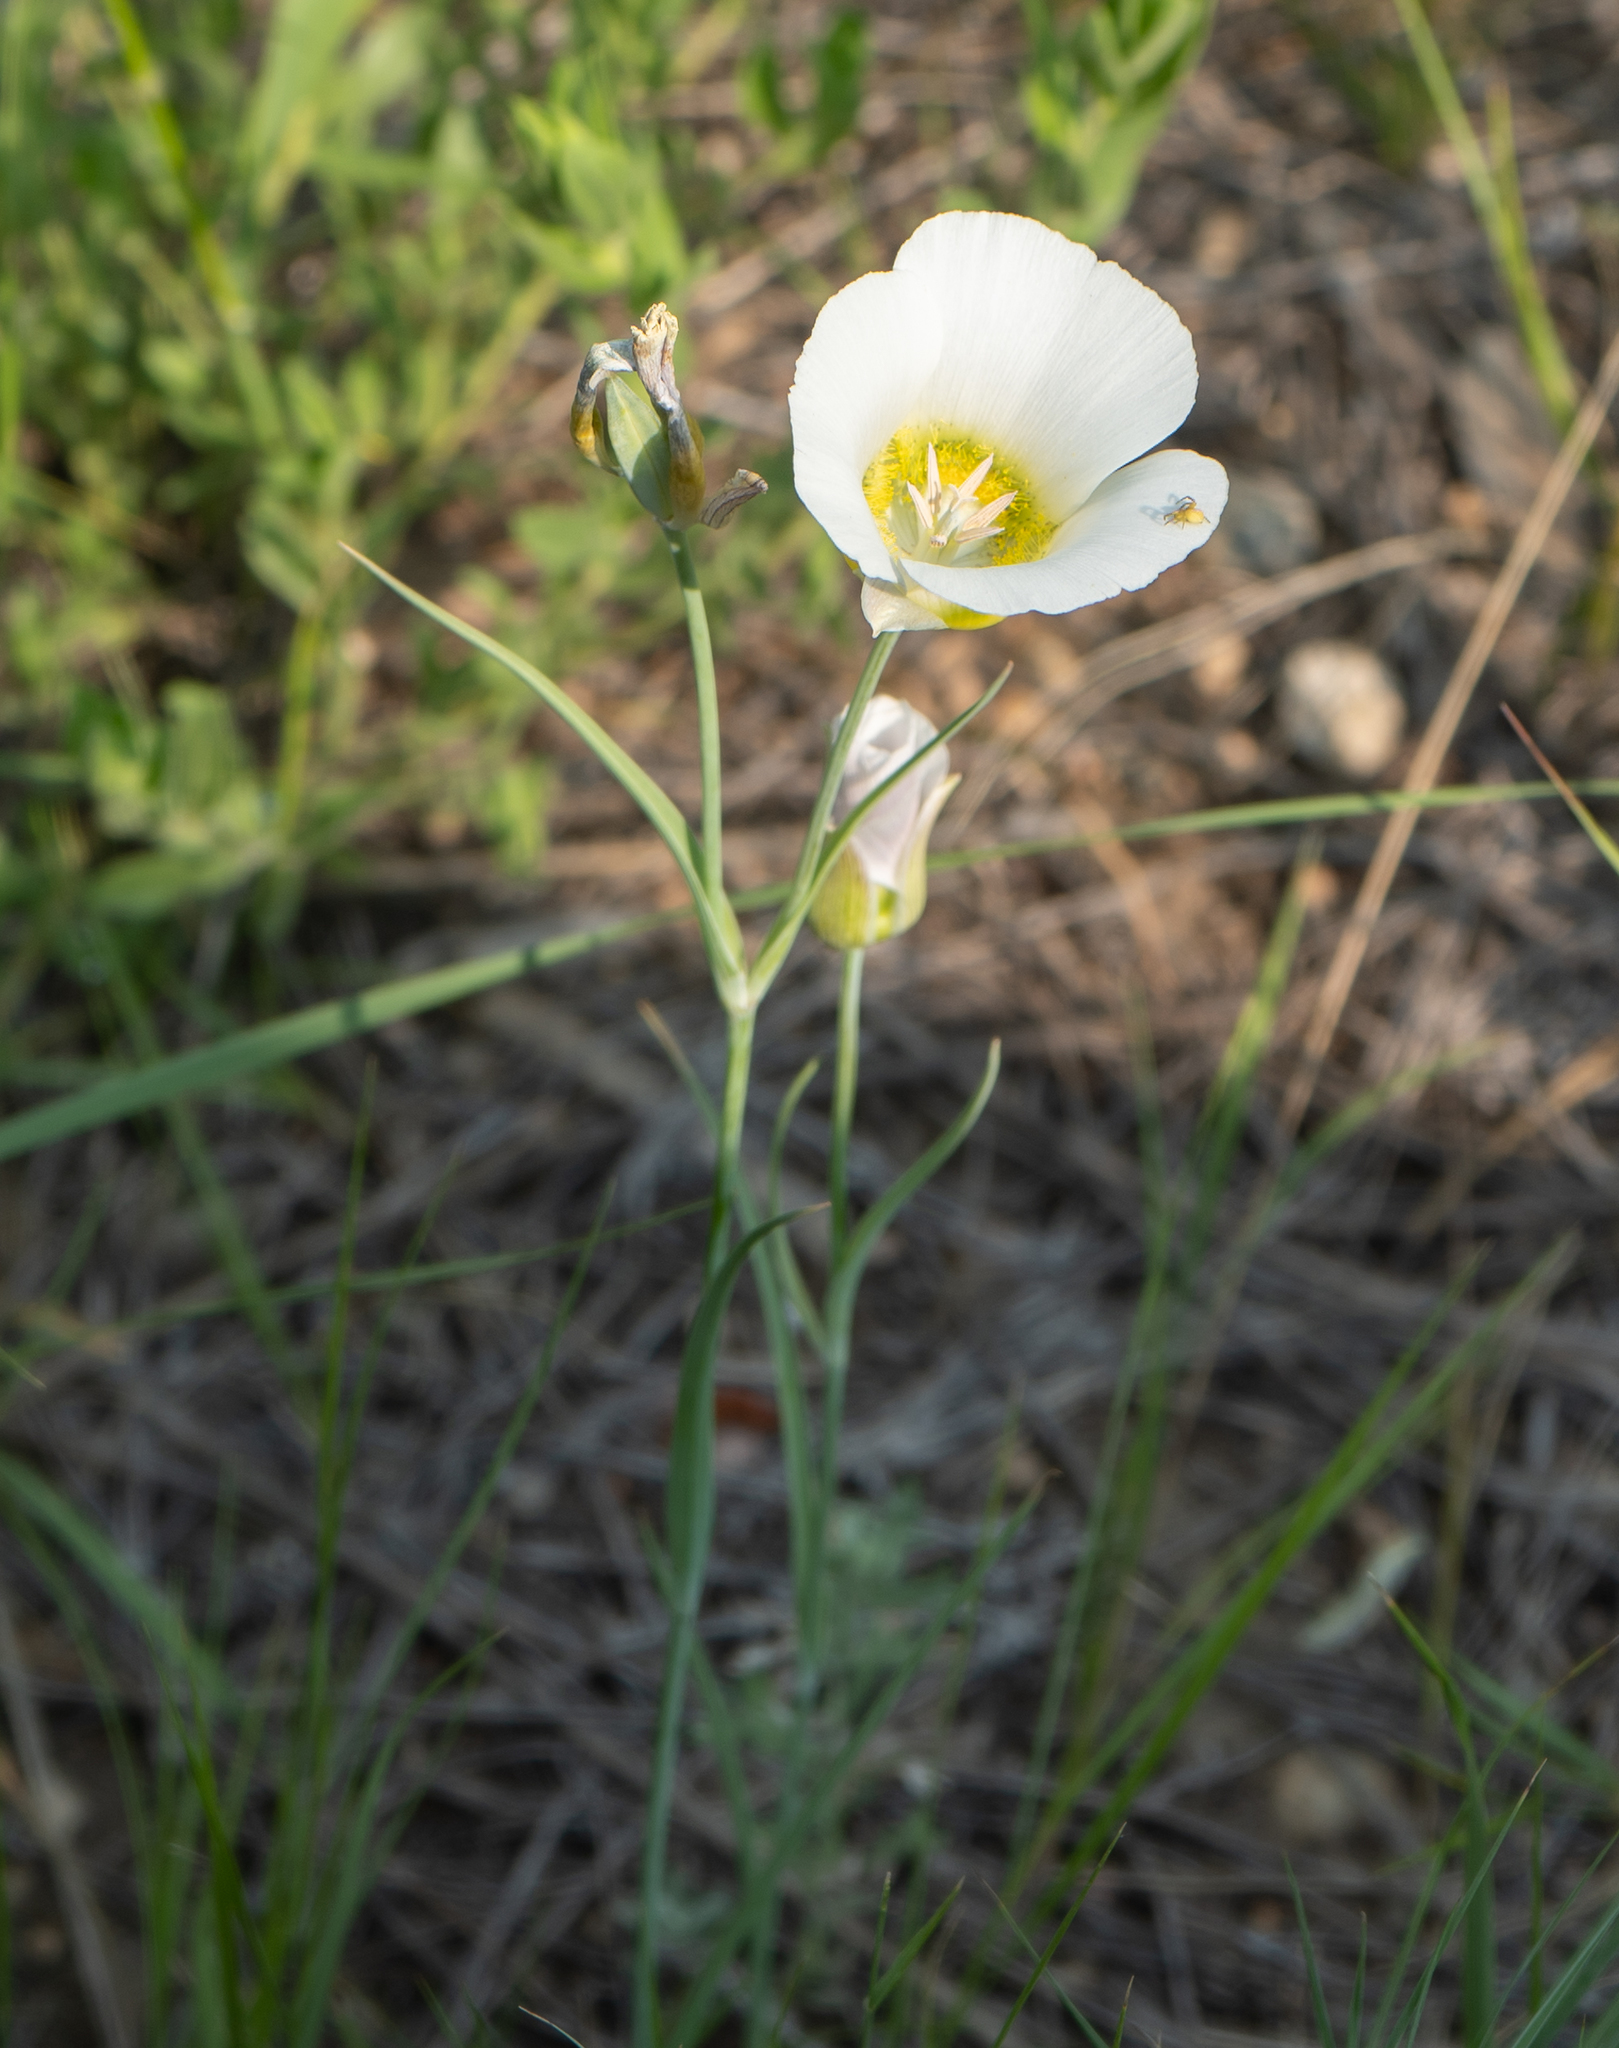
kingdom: Plantae
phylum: Tracheophyta
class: Liliopsida
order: Liliales
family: Liliaceae
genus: Calochortus
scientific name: Calochortus gunnisonii
